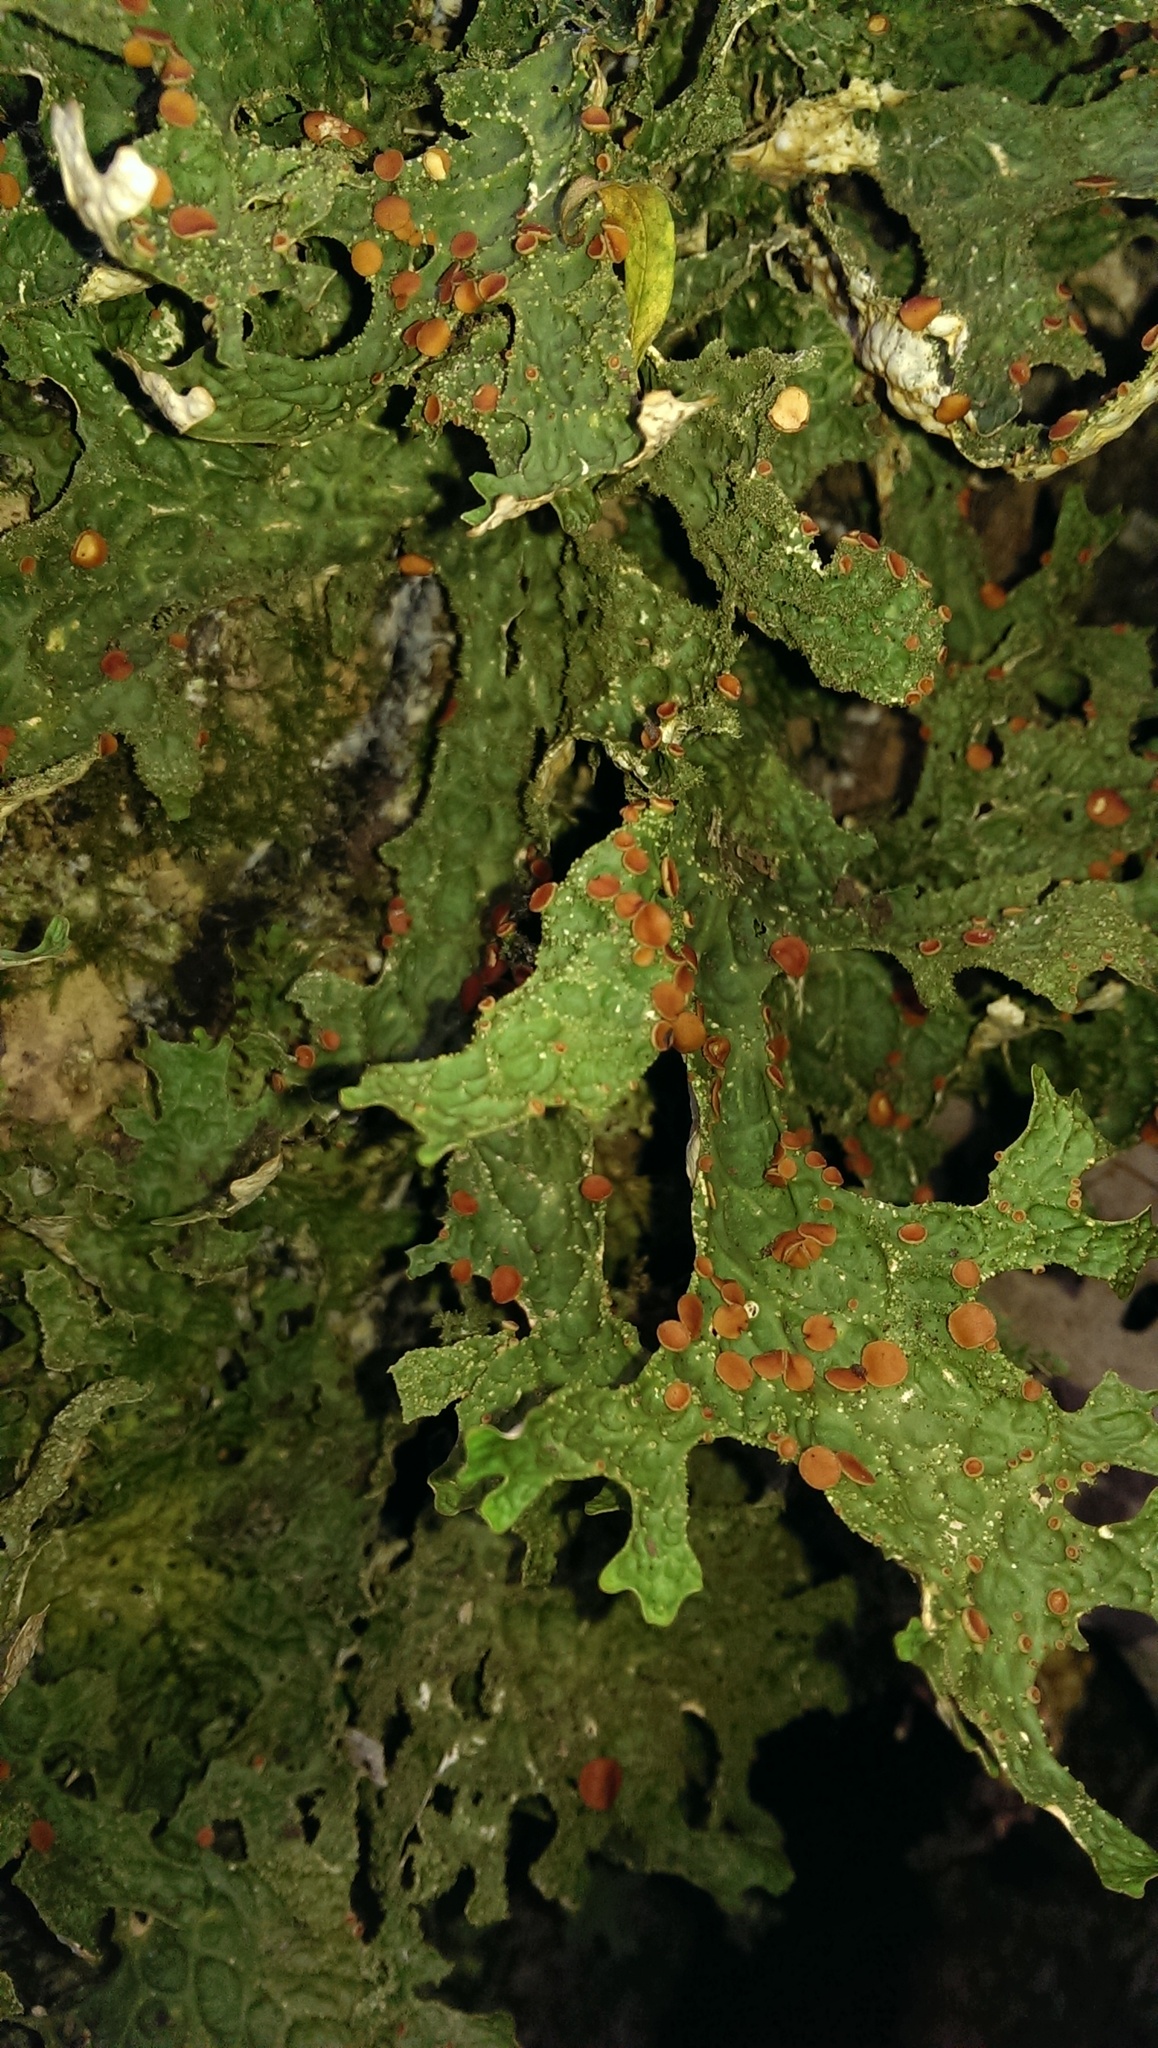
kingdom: Fungi
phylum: Ascomycota
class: Lecanoromycetes
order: Peltigerales
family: Lobariaceae
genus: Lobaria
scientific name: Lobaria pulmonaria
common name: Lungwort
